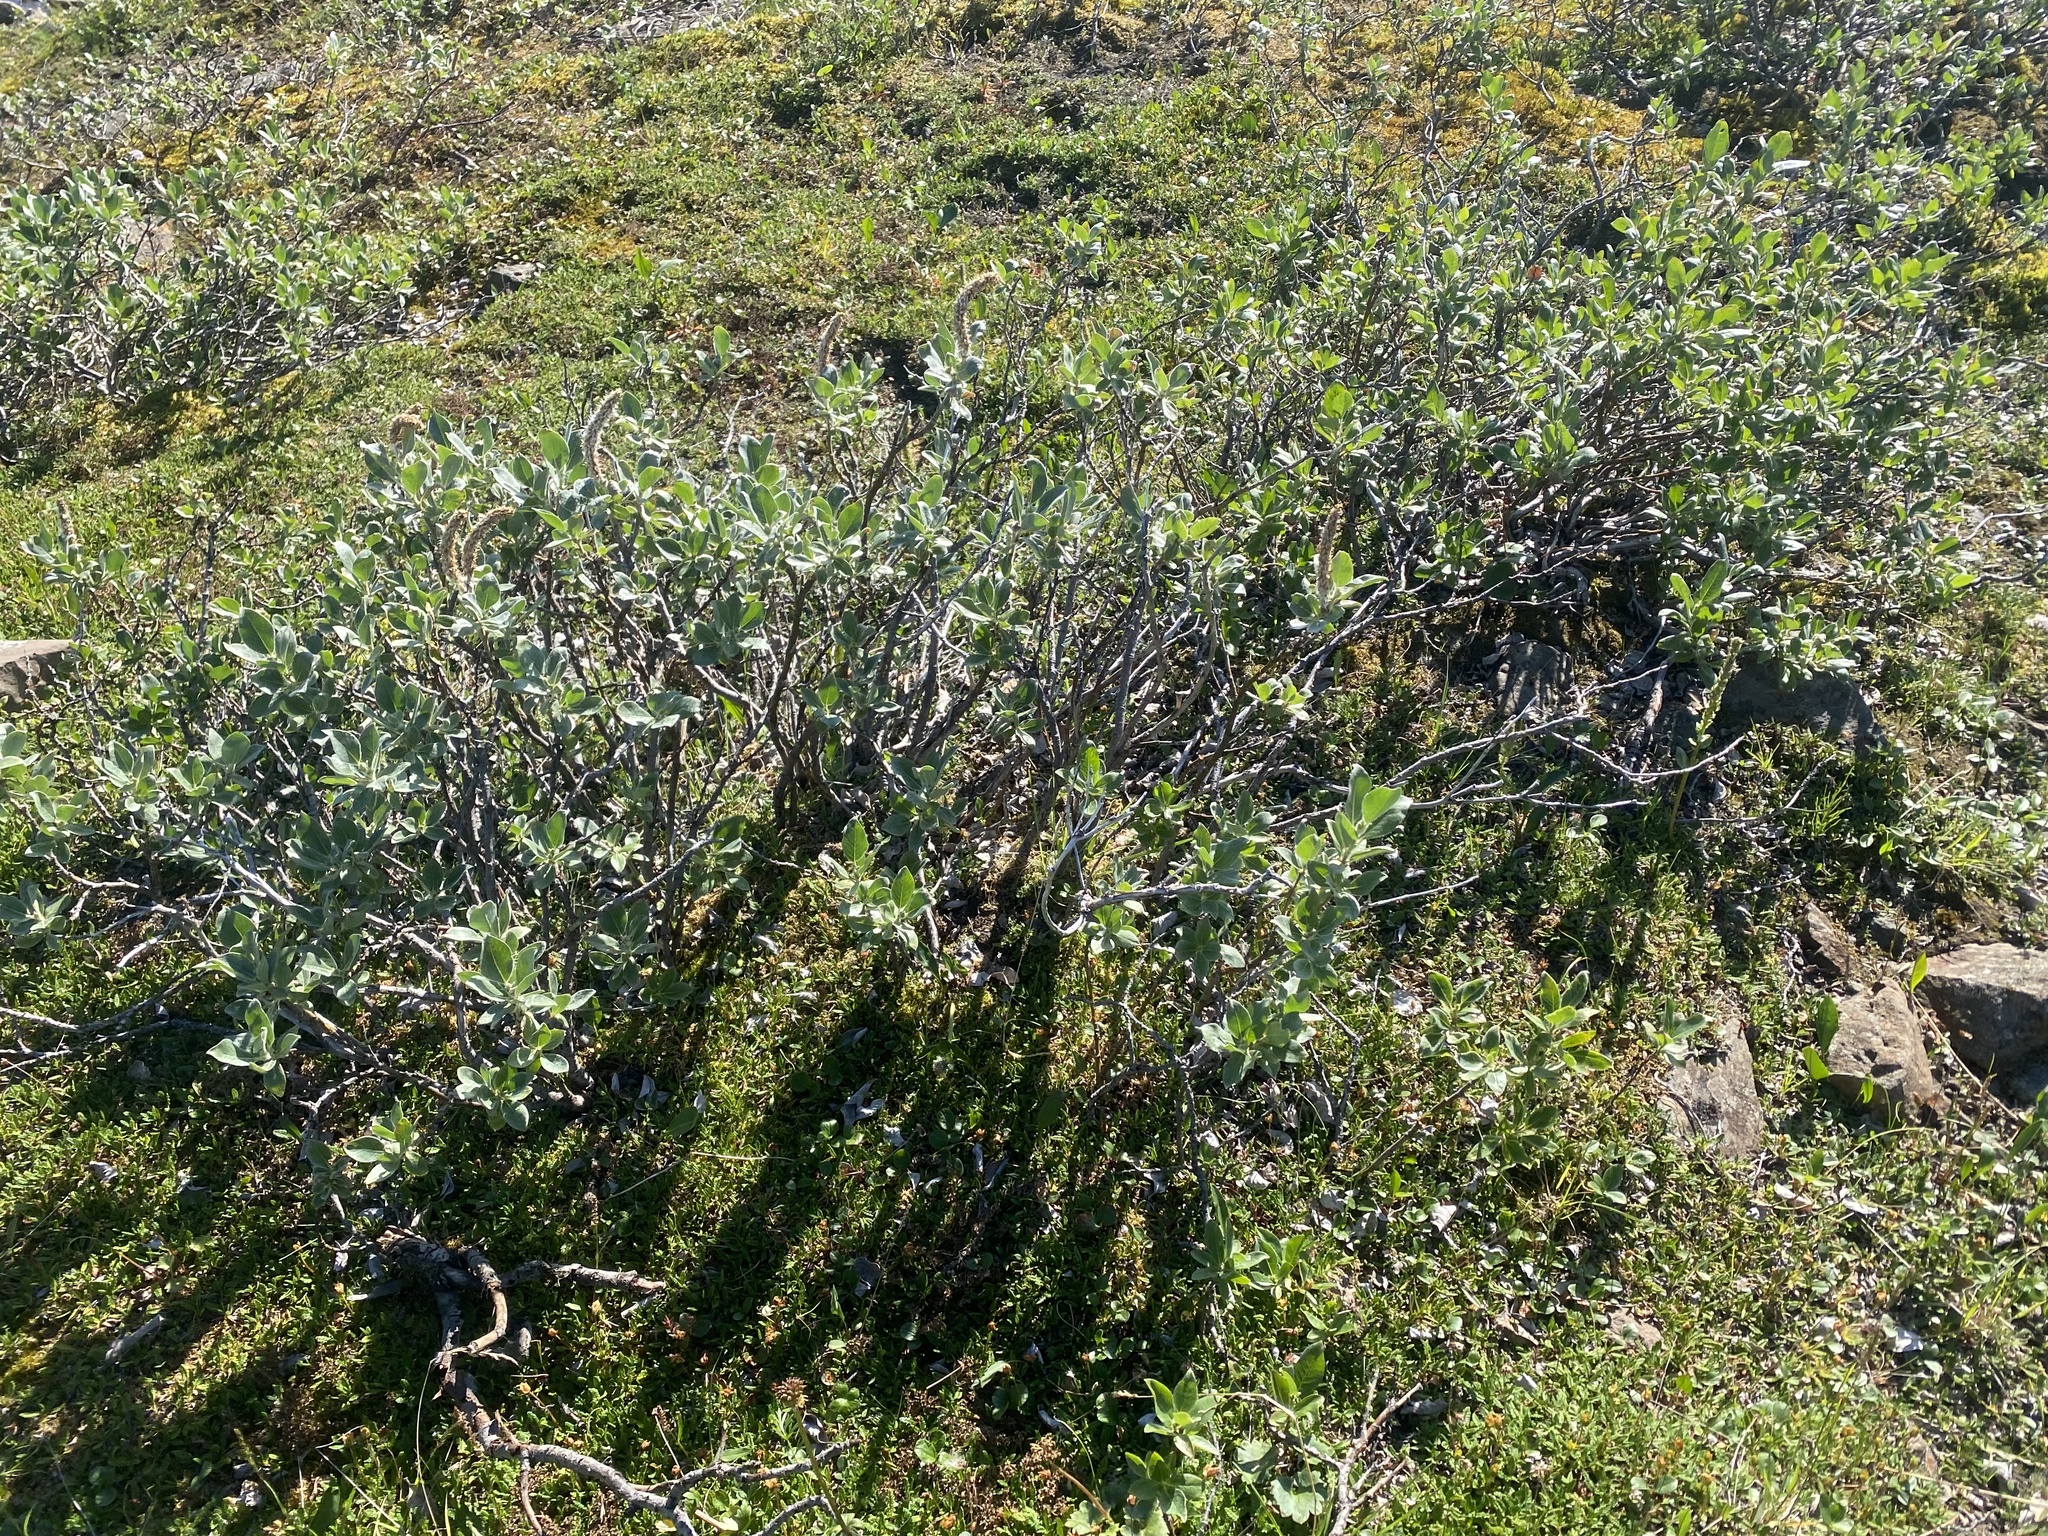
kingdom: Plantae
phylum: Tracheophyta
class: Magnoliopsida
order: Malpighiales
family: Salicaceae
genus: Salix
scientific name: Salix lanata
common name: Woolly willow
